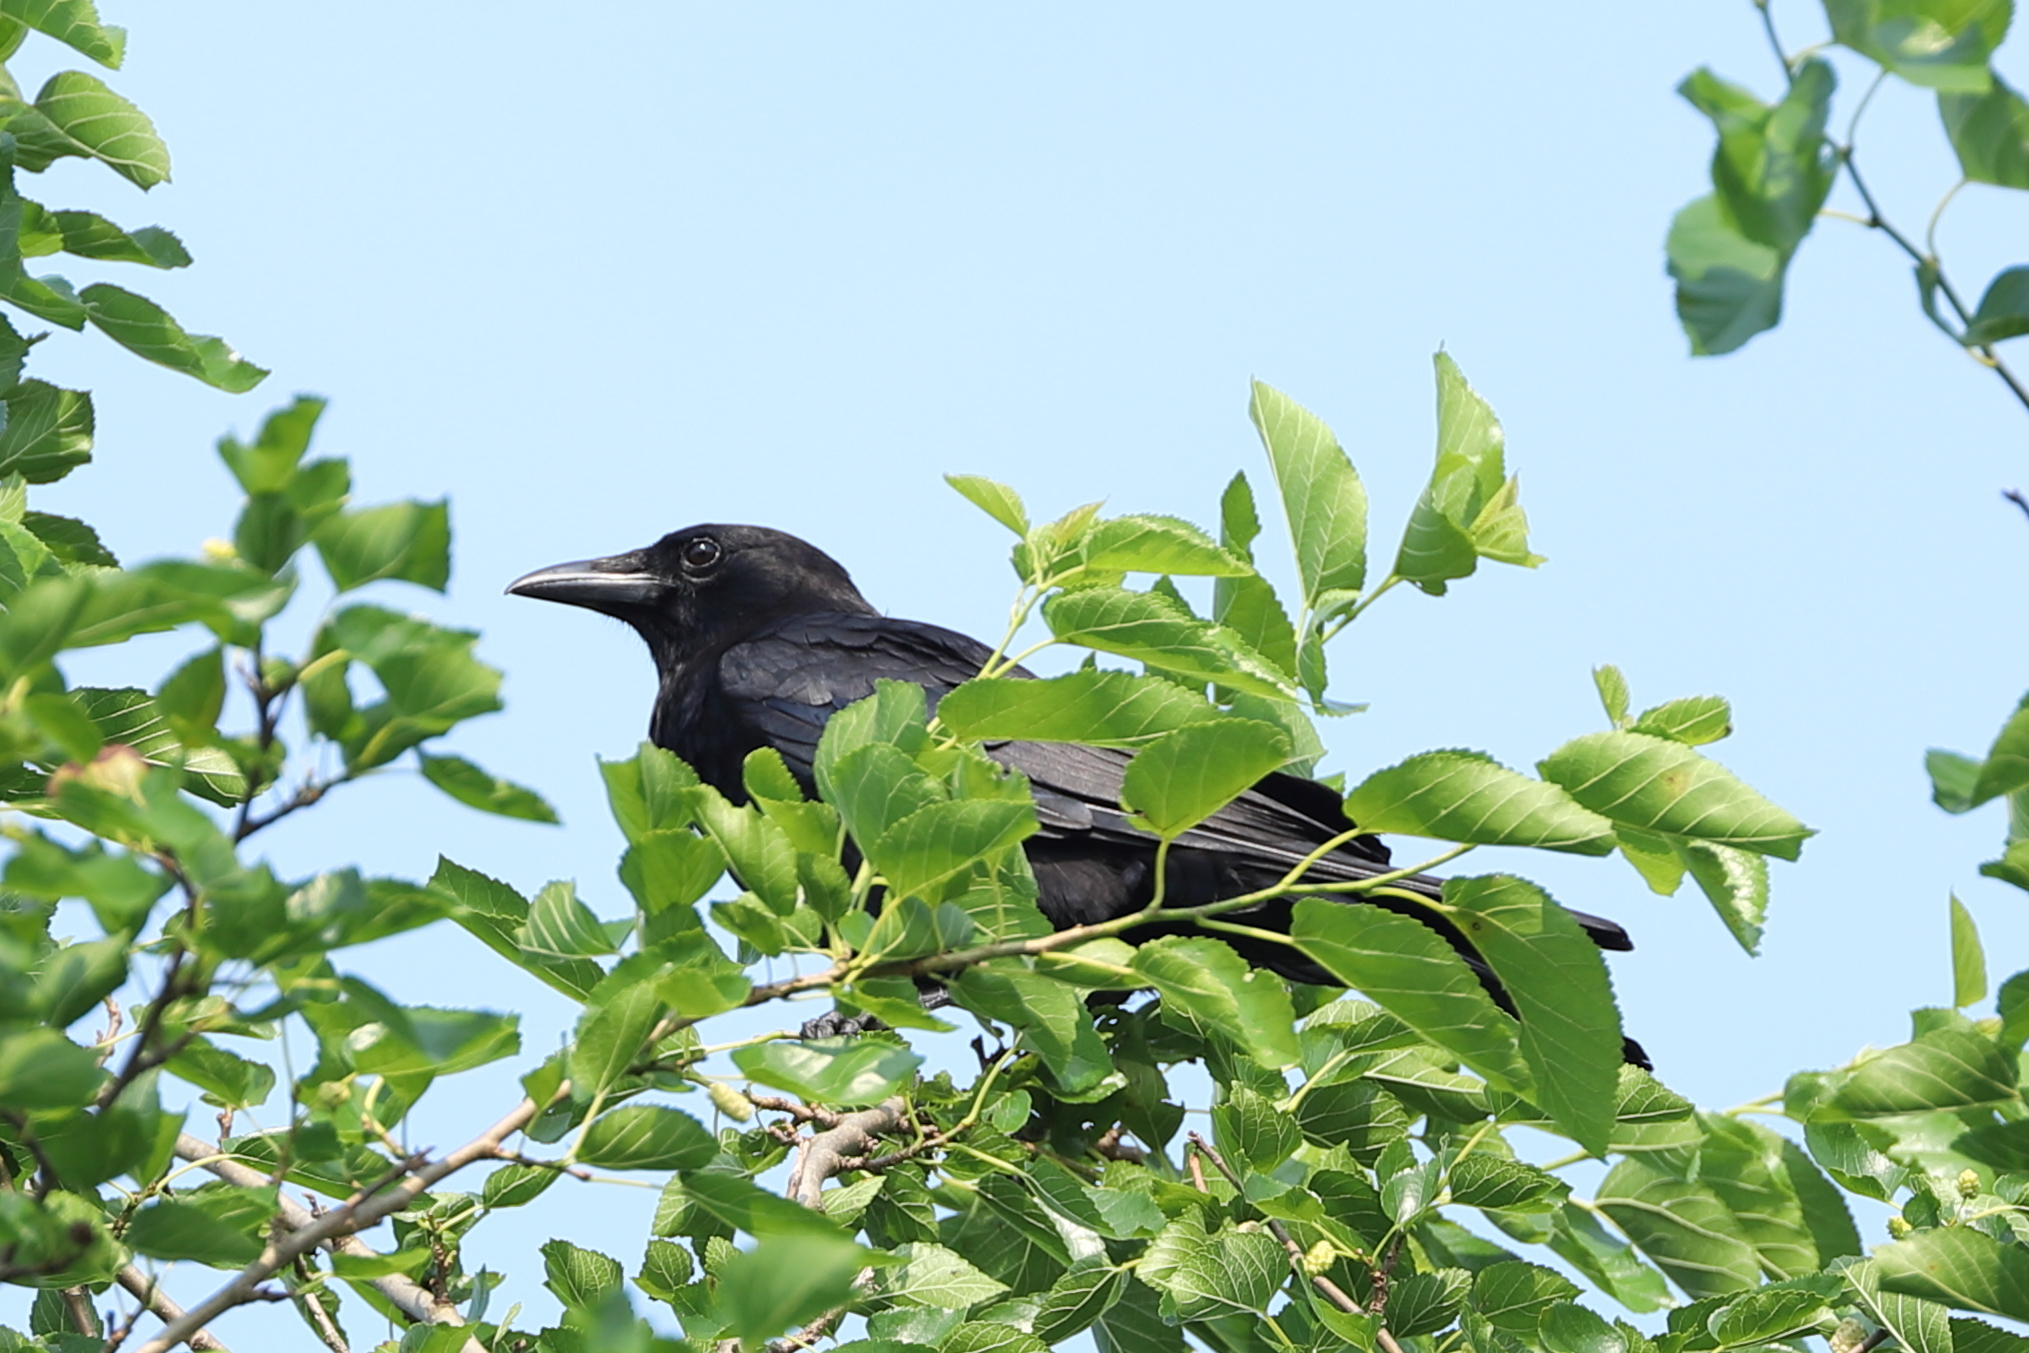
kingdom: Animalia
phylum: Chordata
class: Aves
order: Passeriformes
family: Corvidae
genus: Corvus
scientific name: Corvus brachyrhynchos
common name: American crow
